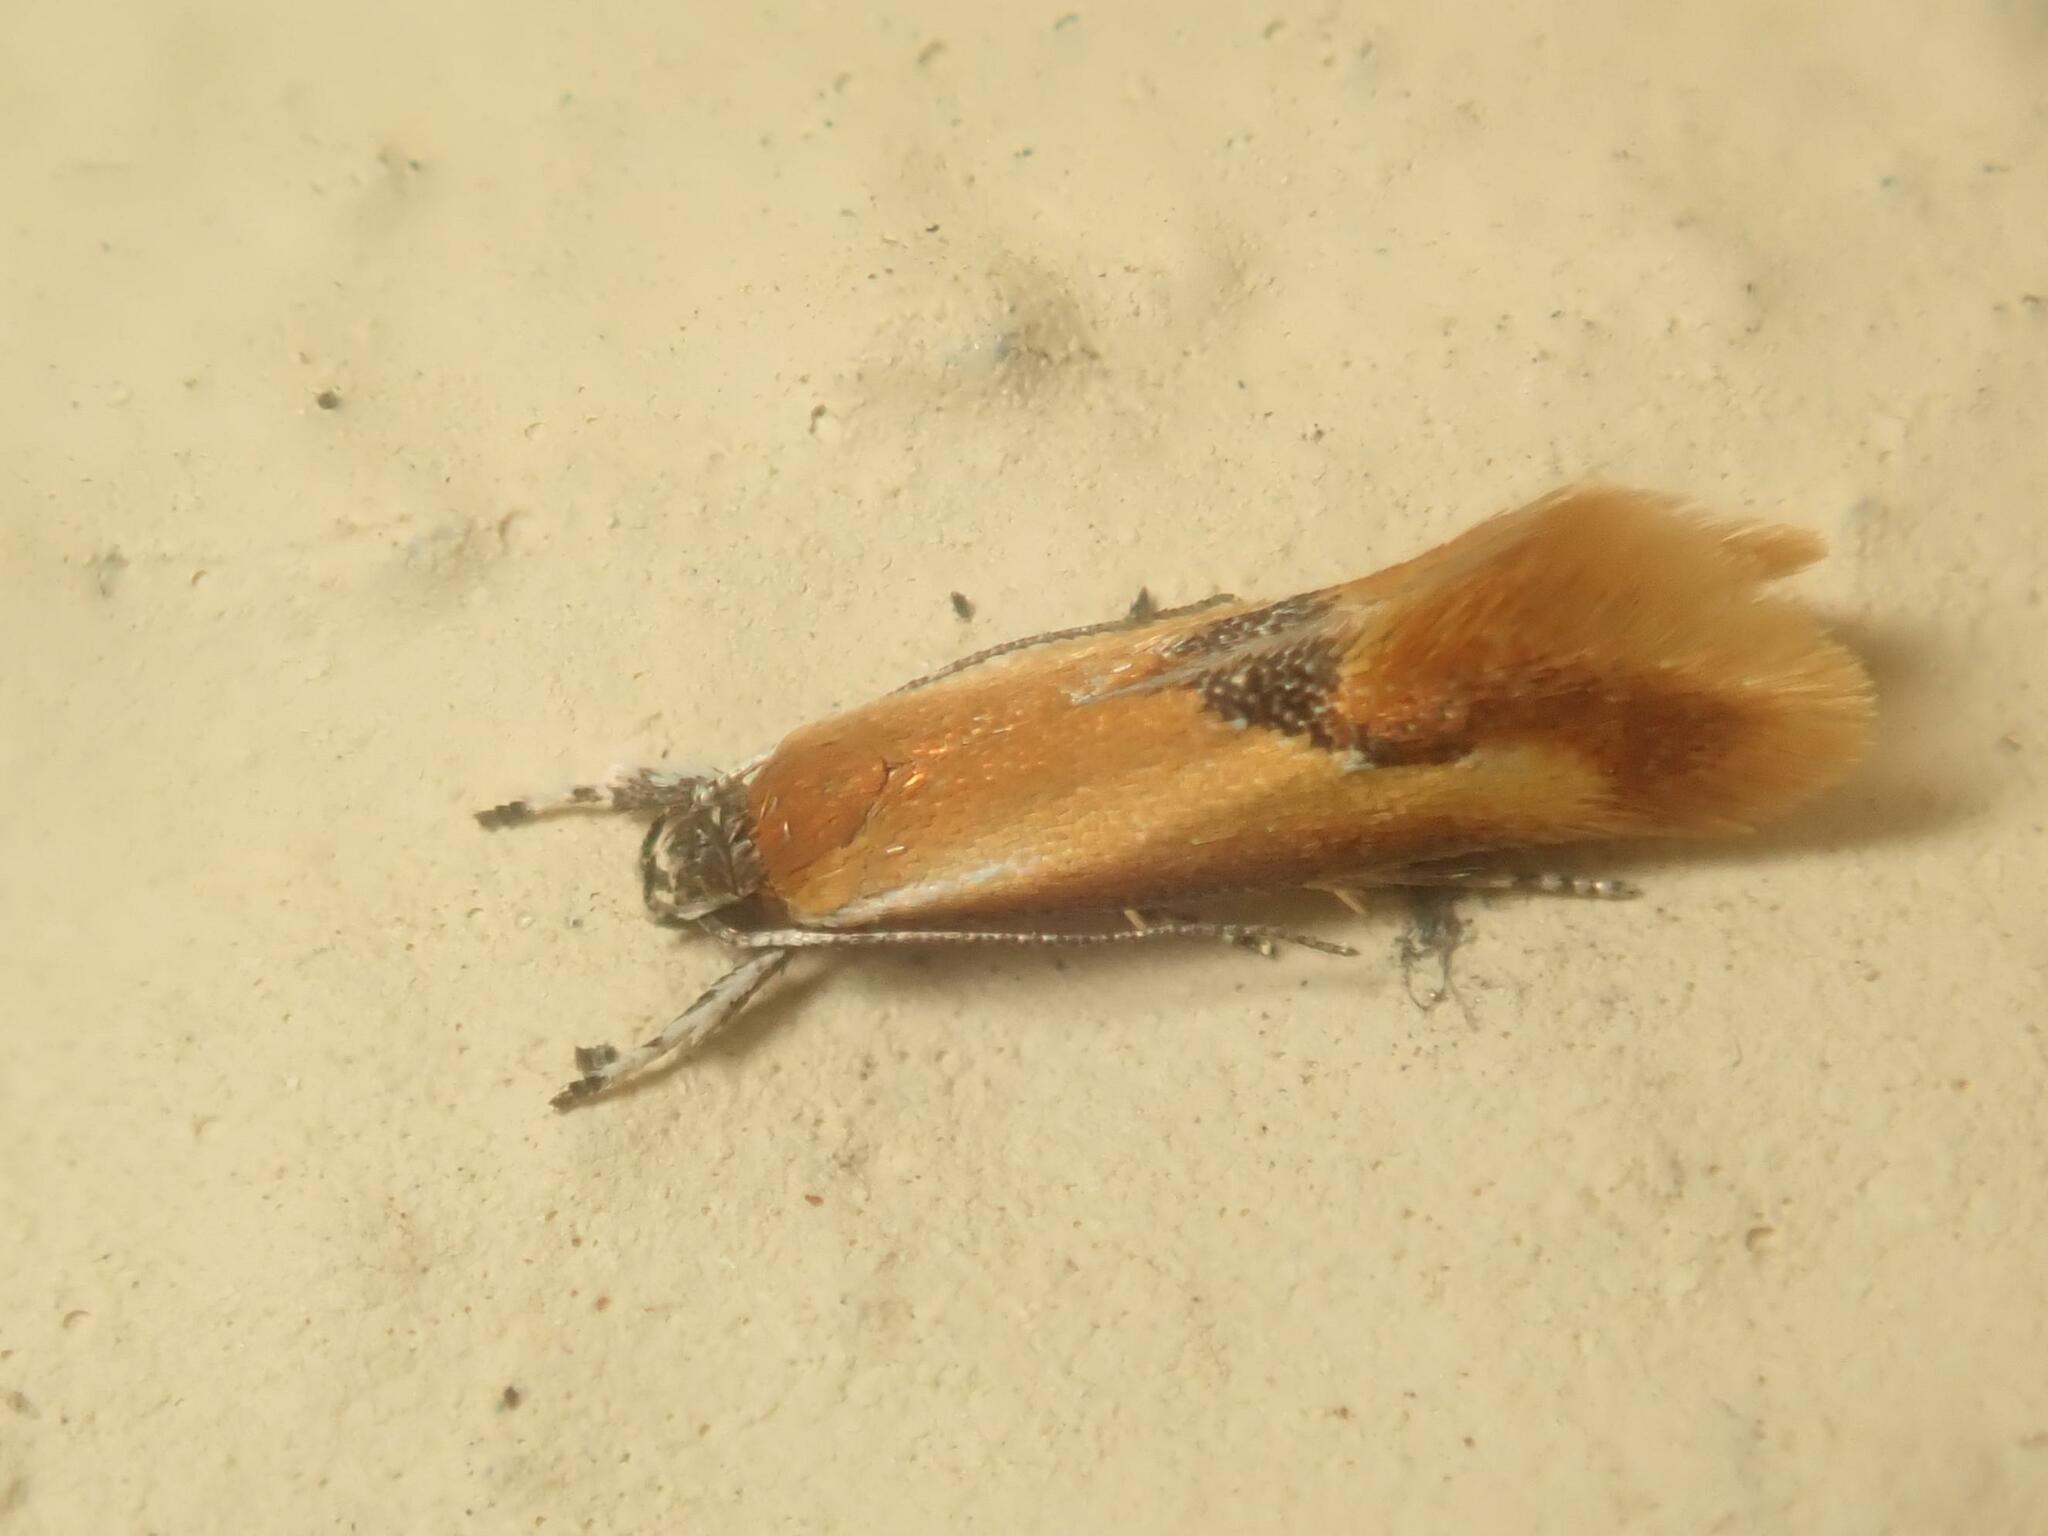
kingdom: Animalia
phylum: Arthropoda
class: Insecta
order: Lepidoptera
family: Oecophoridae
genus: Batia
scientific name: Batia lunaris
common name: Moth
